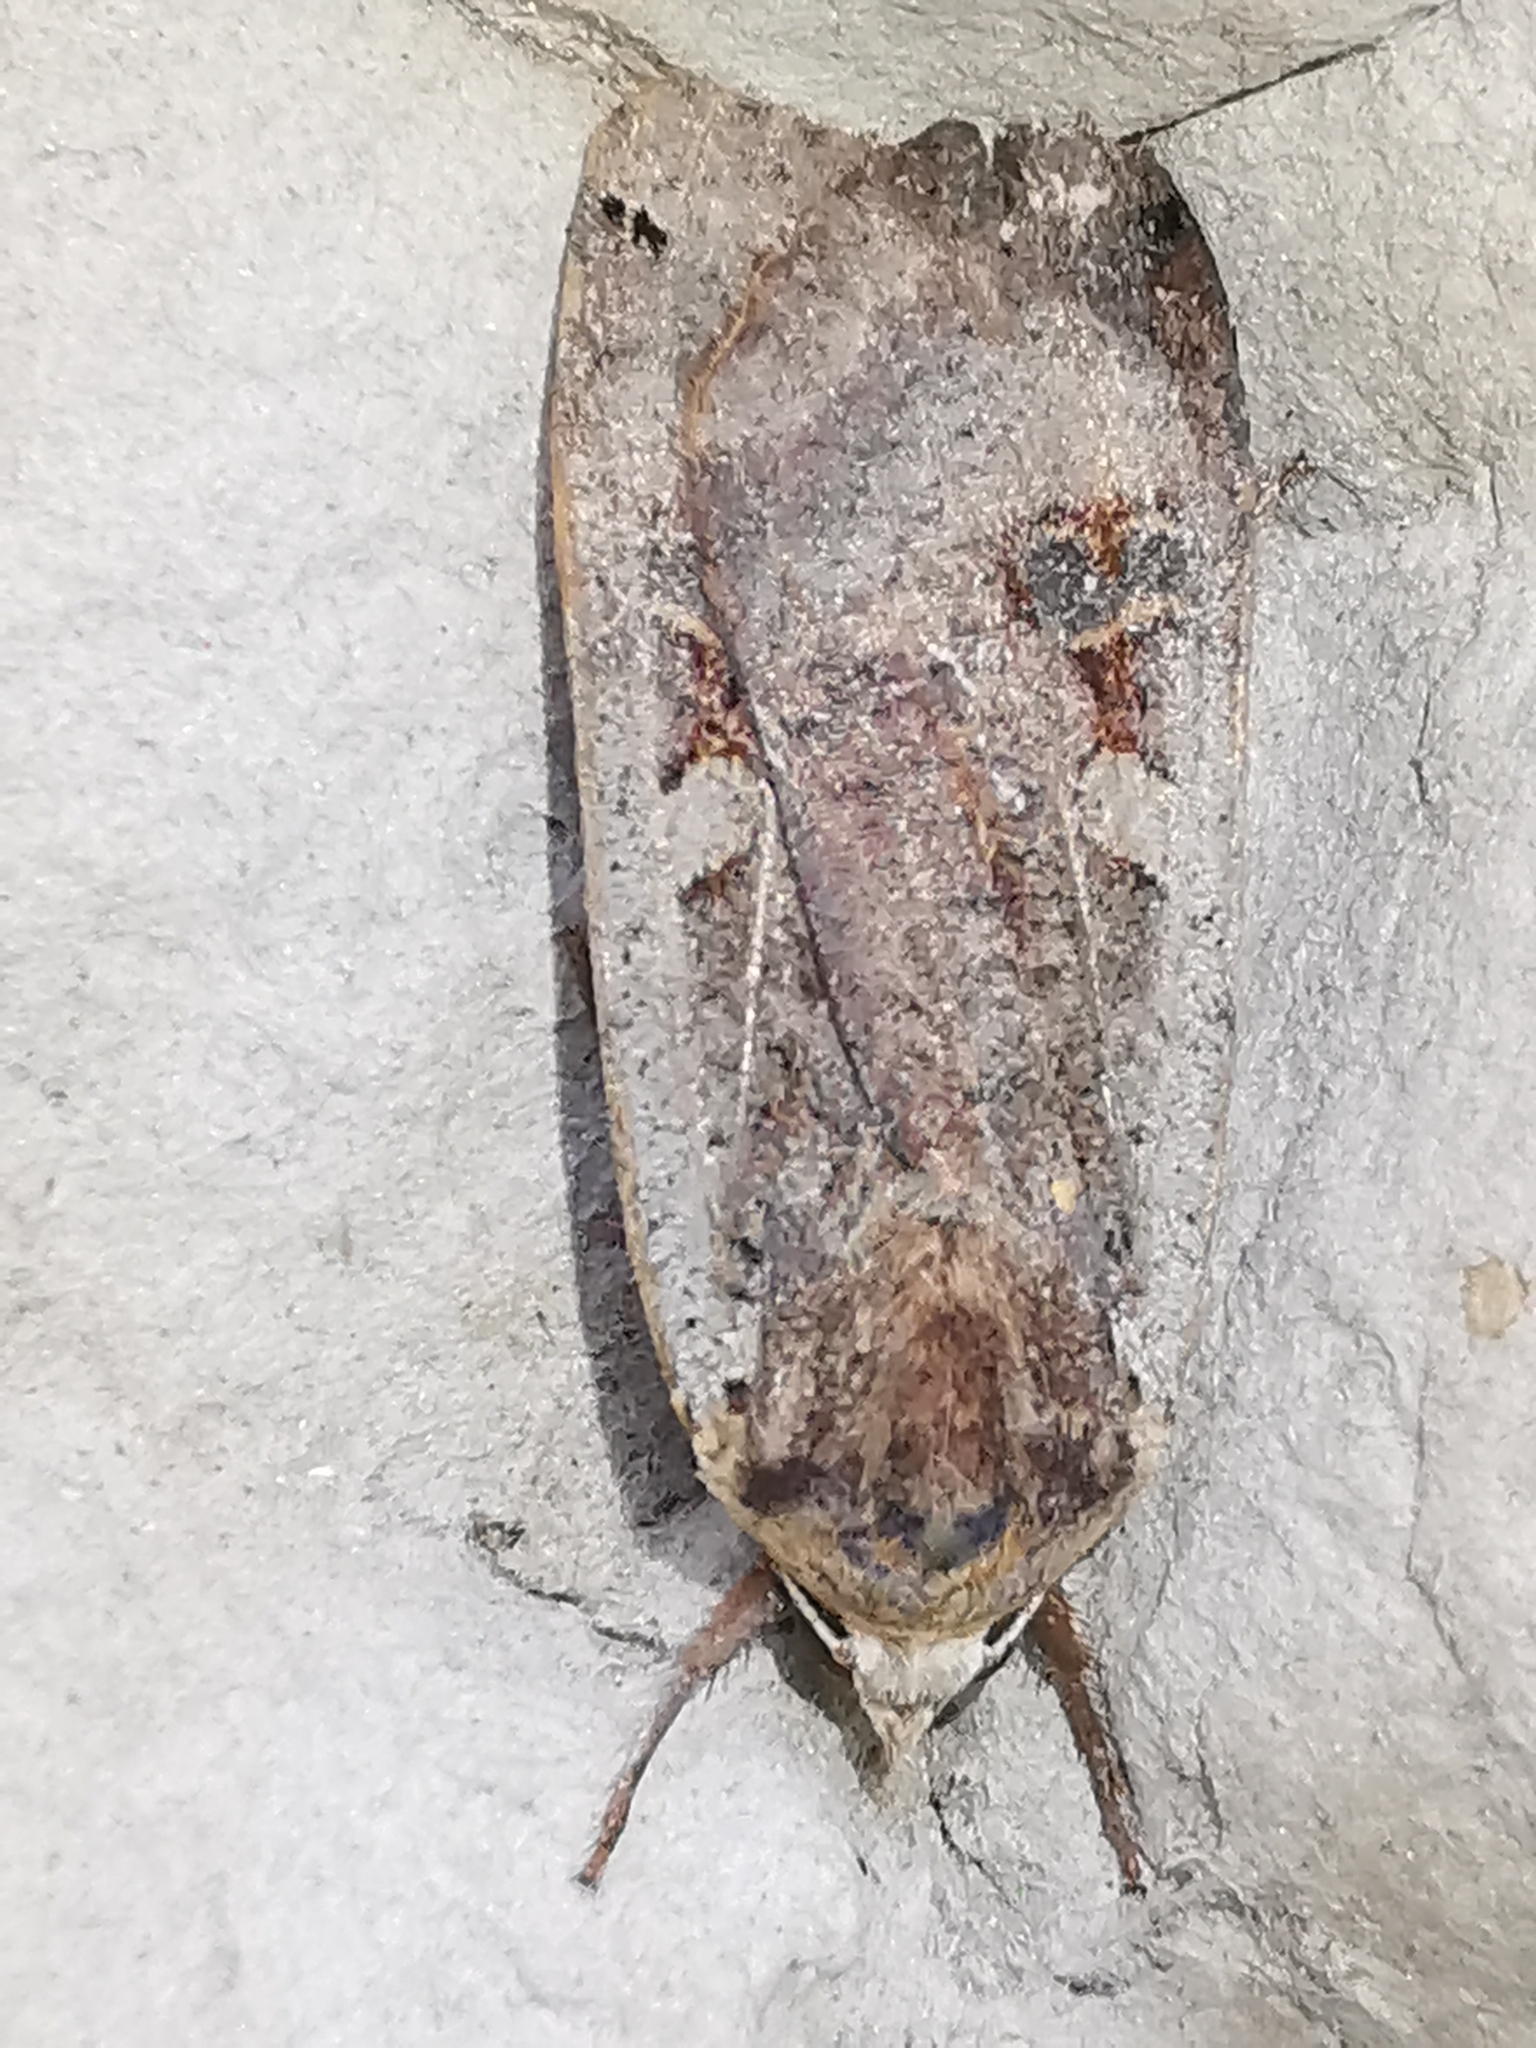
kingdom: Animalia
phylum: Arthropoda
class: Insecta
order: Lepidoptera
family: Noctuidae
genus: Noctua
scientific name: Noctua pronuba
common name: Large yellow underwing
